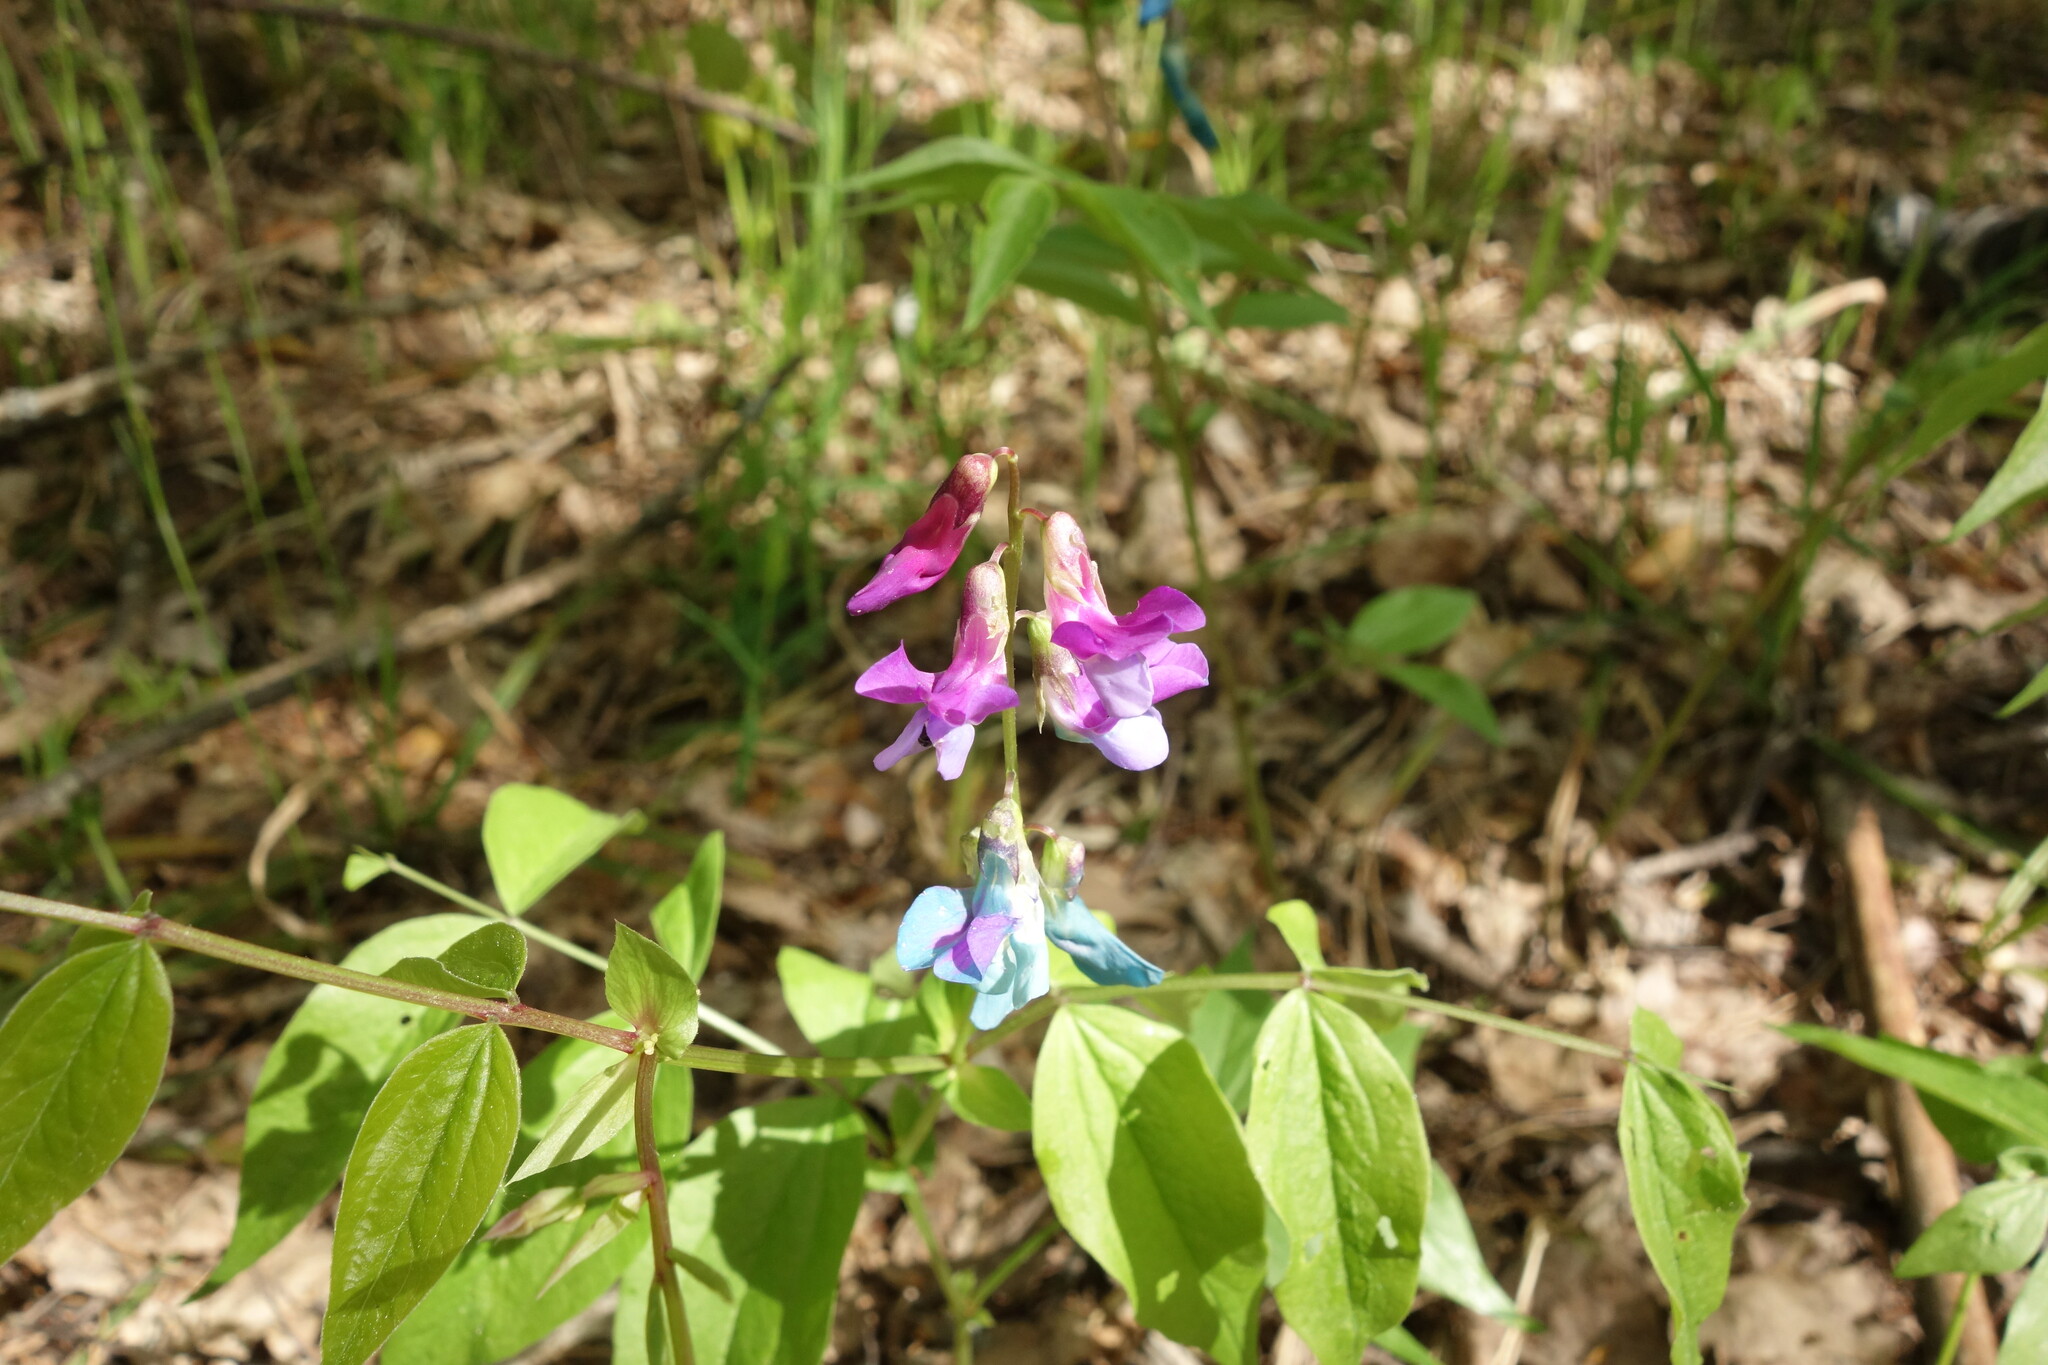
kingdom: Plantae
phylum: Tracheophyta
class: Magnoliopsida
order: Fabales
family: Fabaceae
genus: Lathyrus
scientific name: Lathyrus vernus
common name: Spring pea
